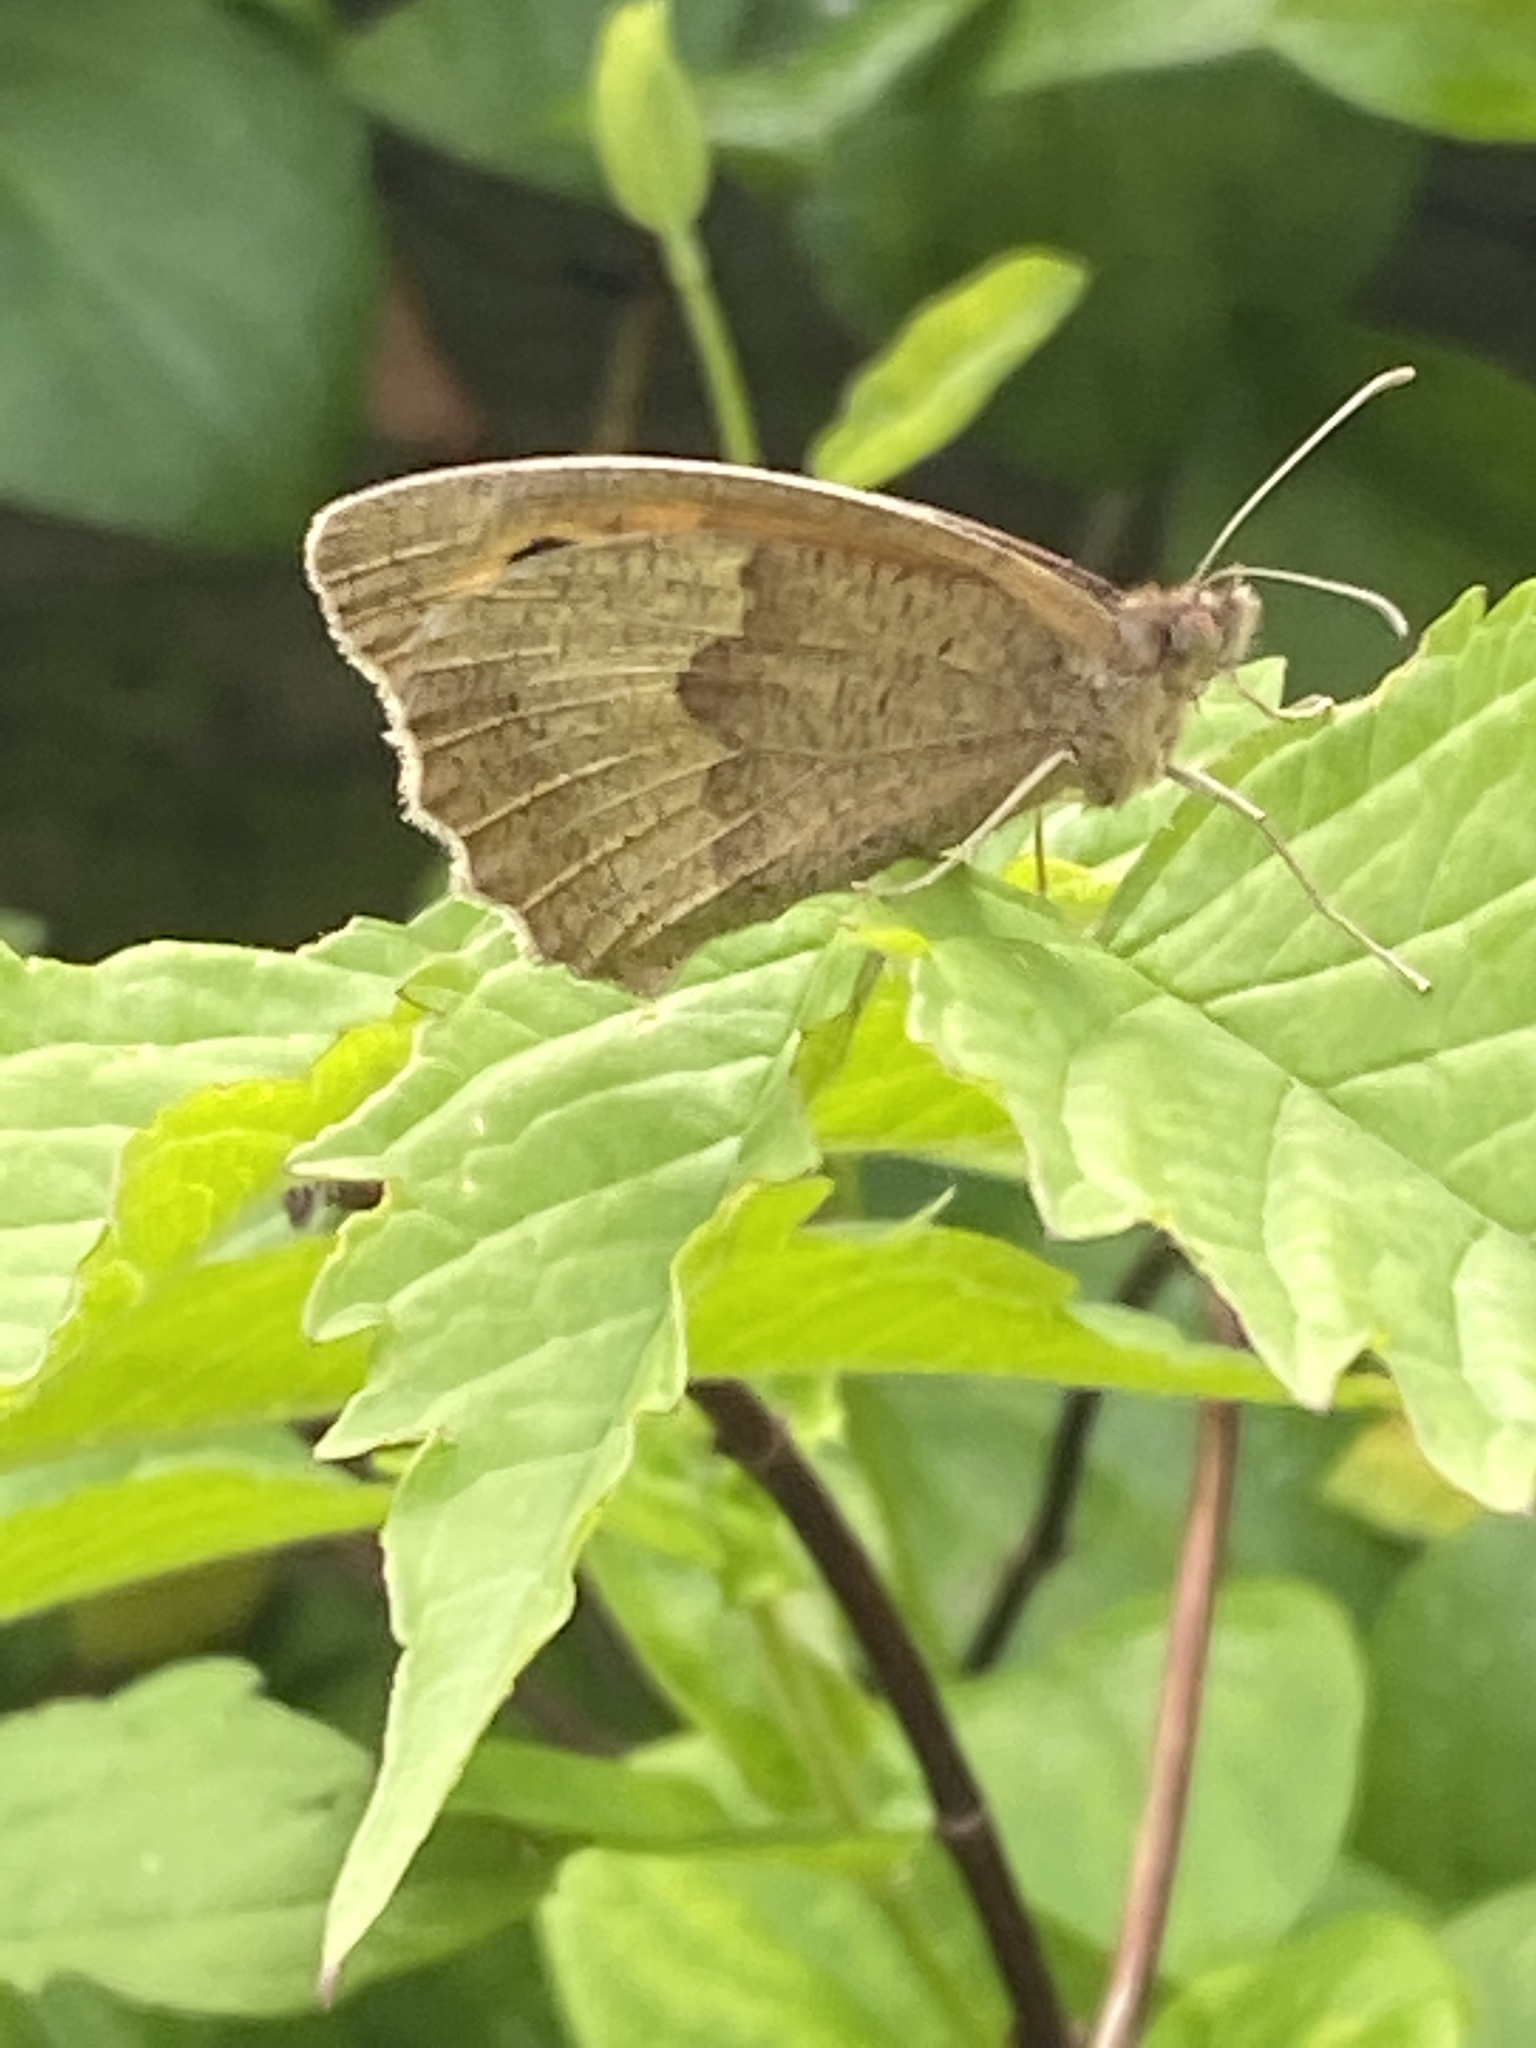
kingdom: Animalia
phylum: Arthropoda
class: Insecta
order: Lepidoptera
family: Nymphalidae
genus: Maniola
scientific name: Maniola jurtina
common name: Meadow brown
